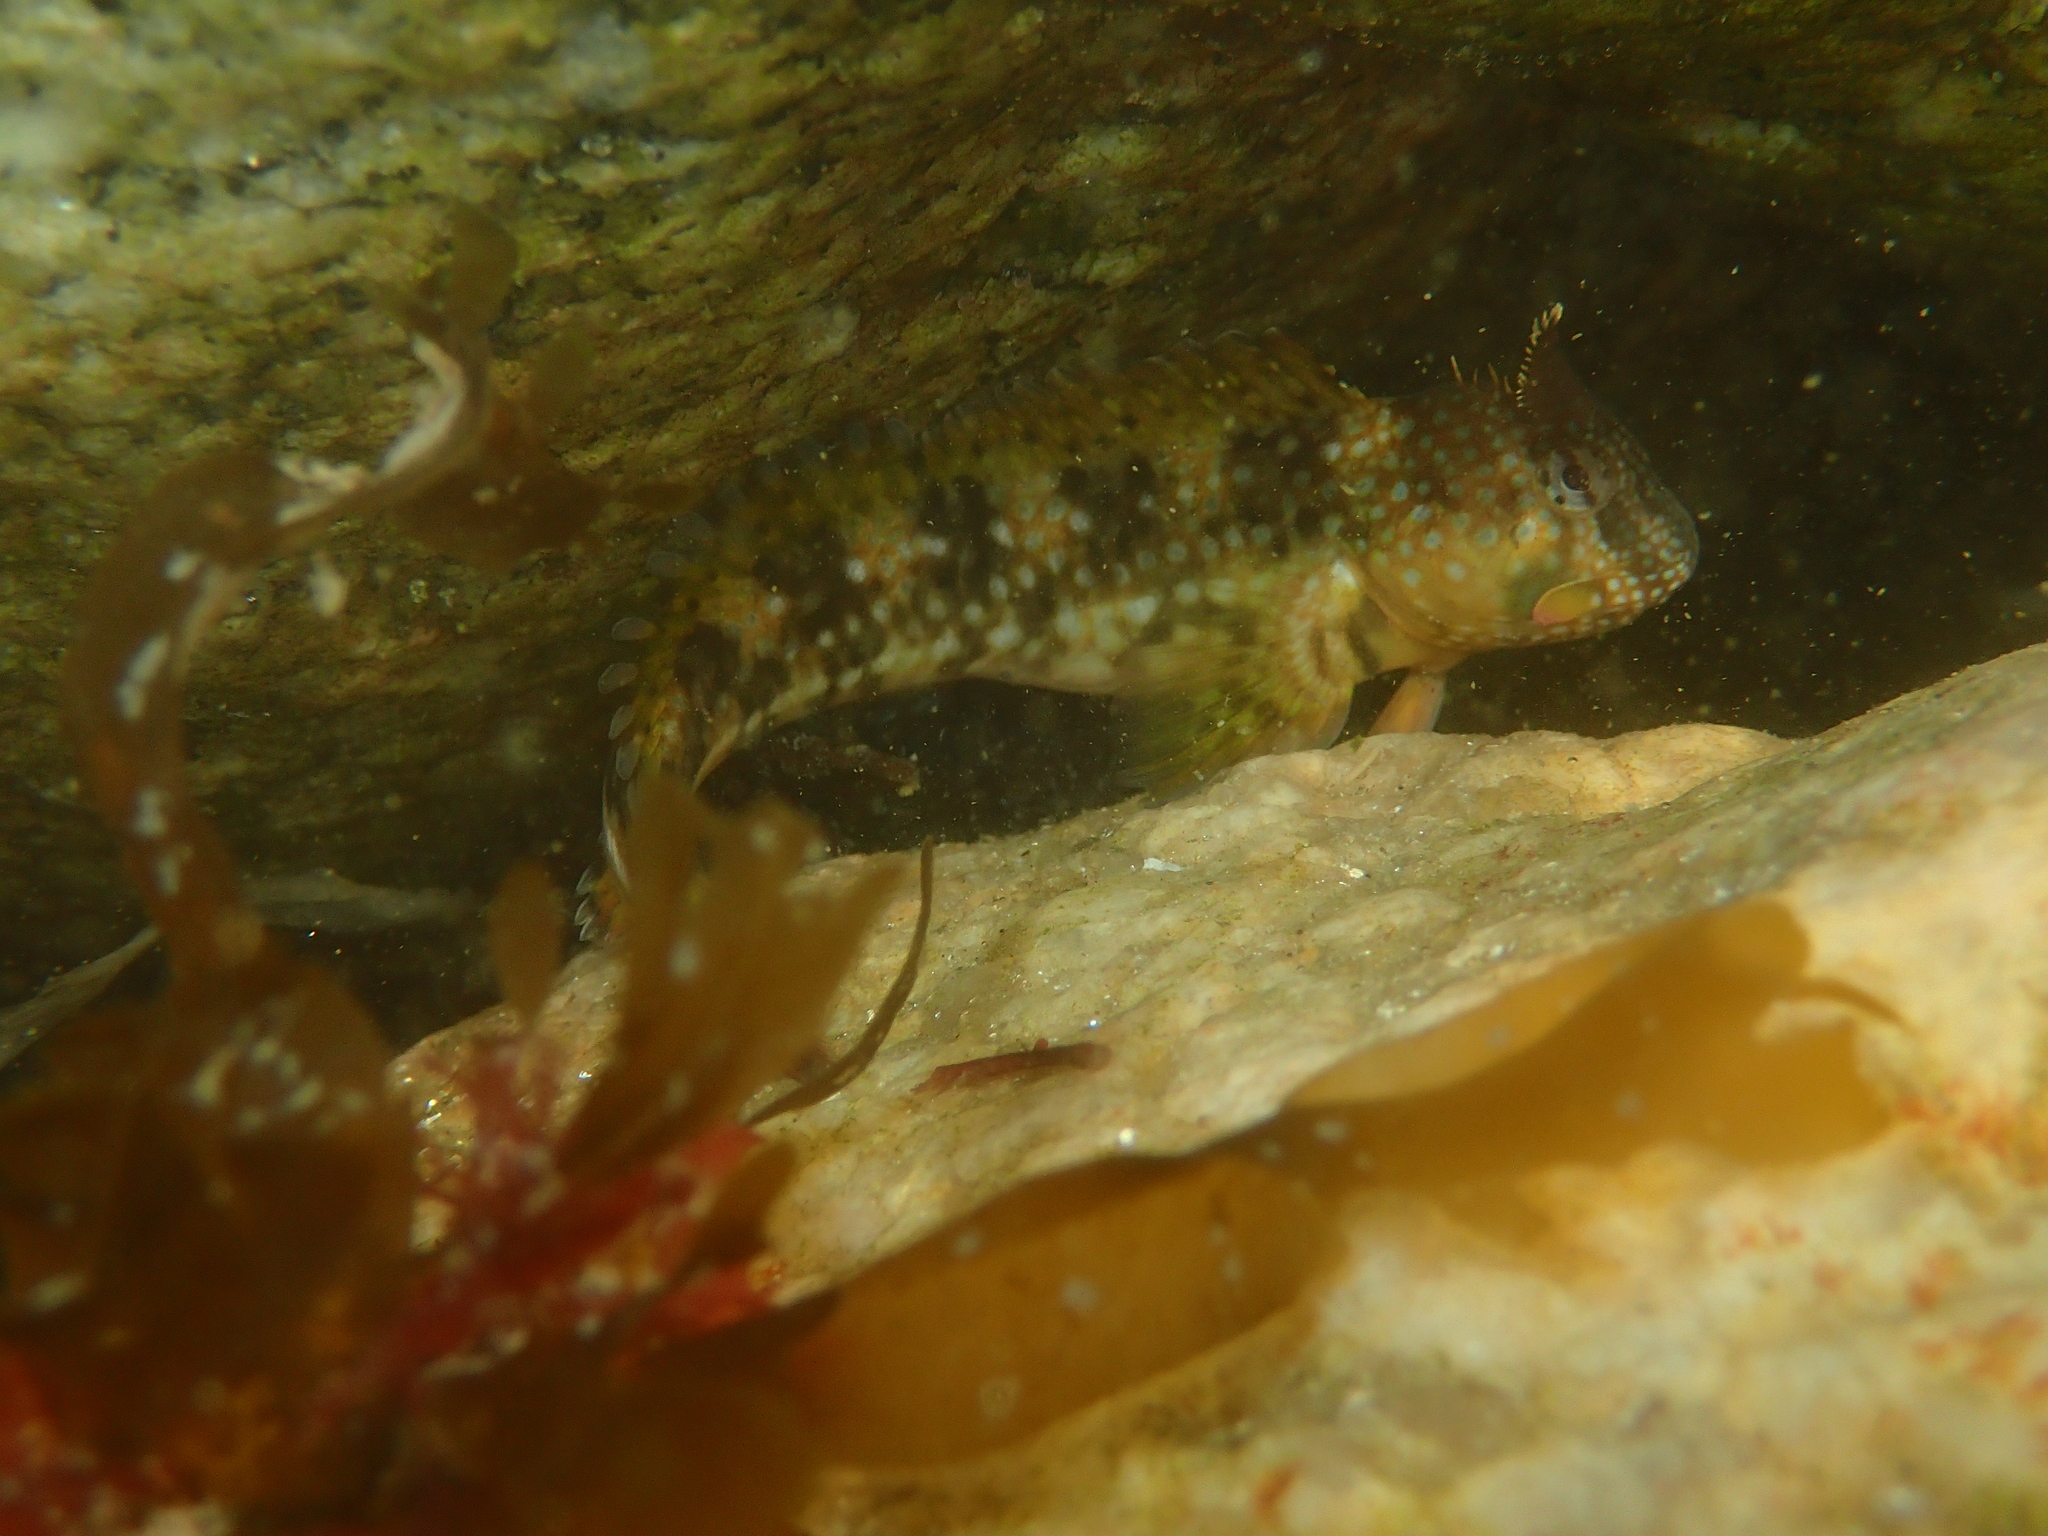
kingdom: Animalia
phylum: Chordata
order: Perciformes
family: Blenniidae
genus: Coryphoblennius
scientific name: Coryphoblennius galerita
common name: Montagu's blenny
